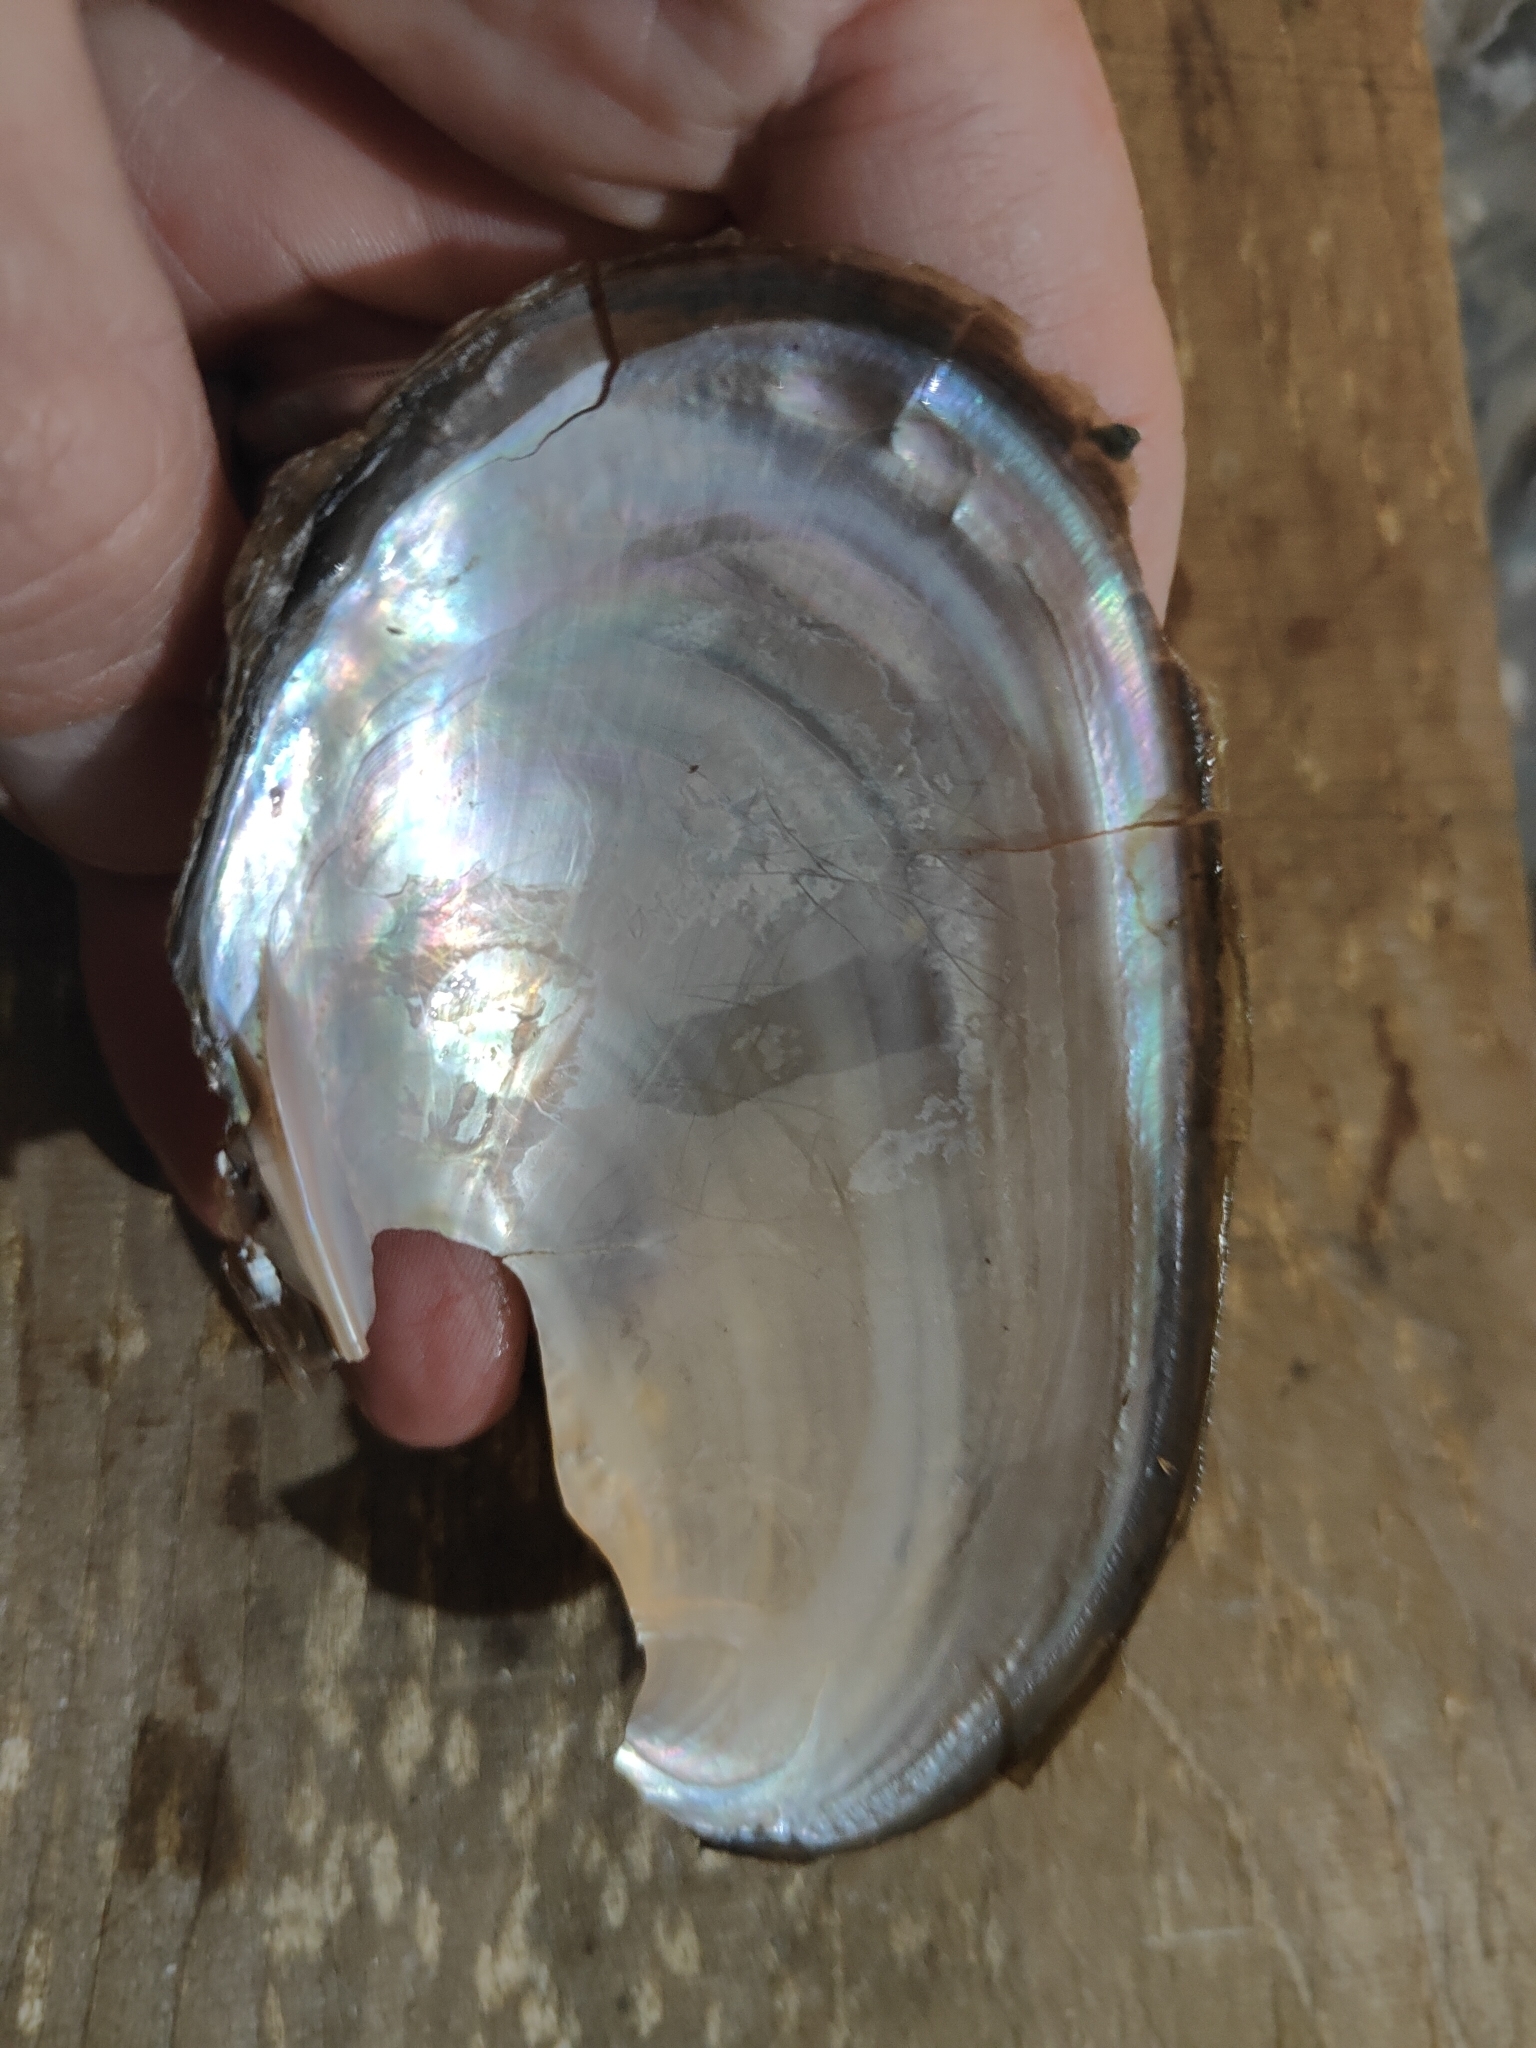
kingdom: Animalia
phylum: Mollusca
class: Bivalvia
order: Unionida
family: Unionidae
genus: Potamilus
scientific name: Potamilus fragilis
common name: Fragile papershell
